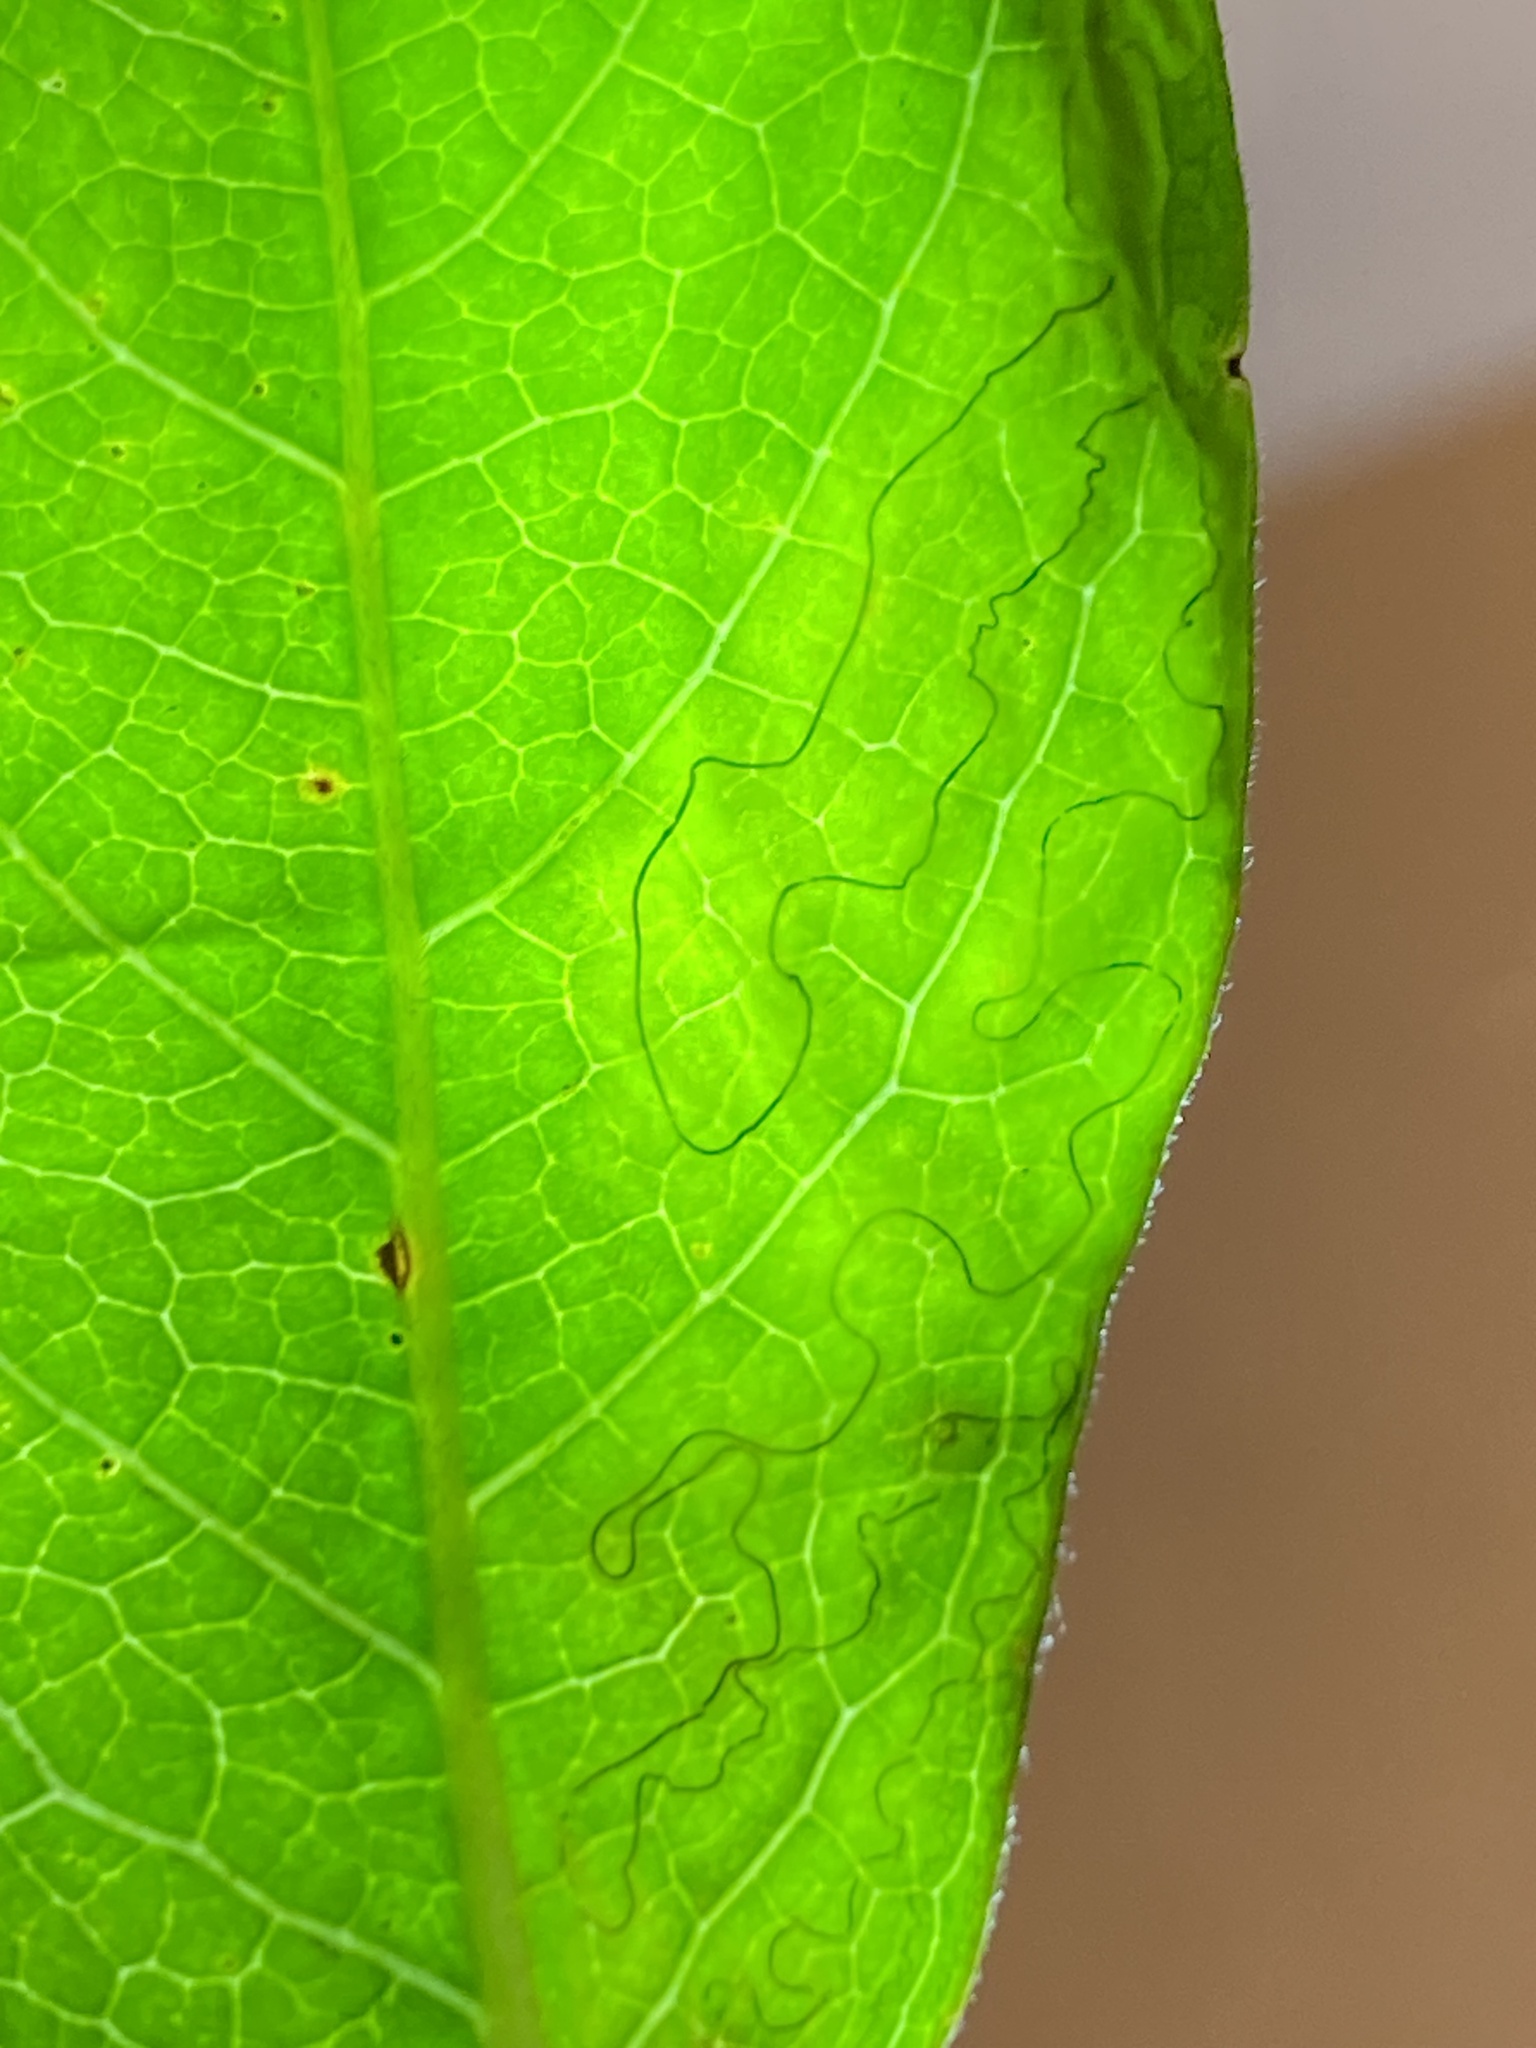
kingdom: Animalia
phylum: Arthropoda
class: Insecta
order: Lepidoptera
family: Gracillariidae
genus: Phyllocnistis
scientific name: Phyllocnistis ampelopsiella
